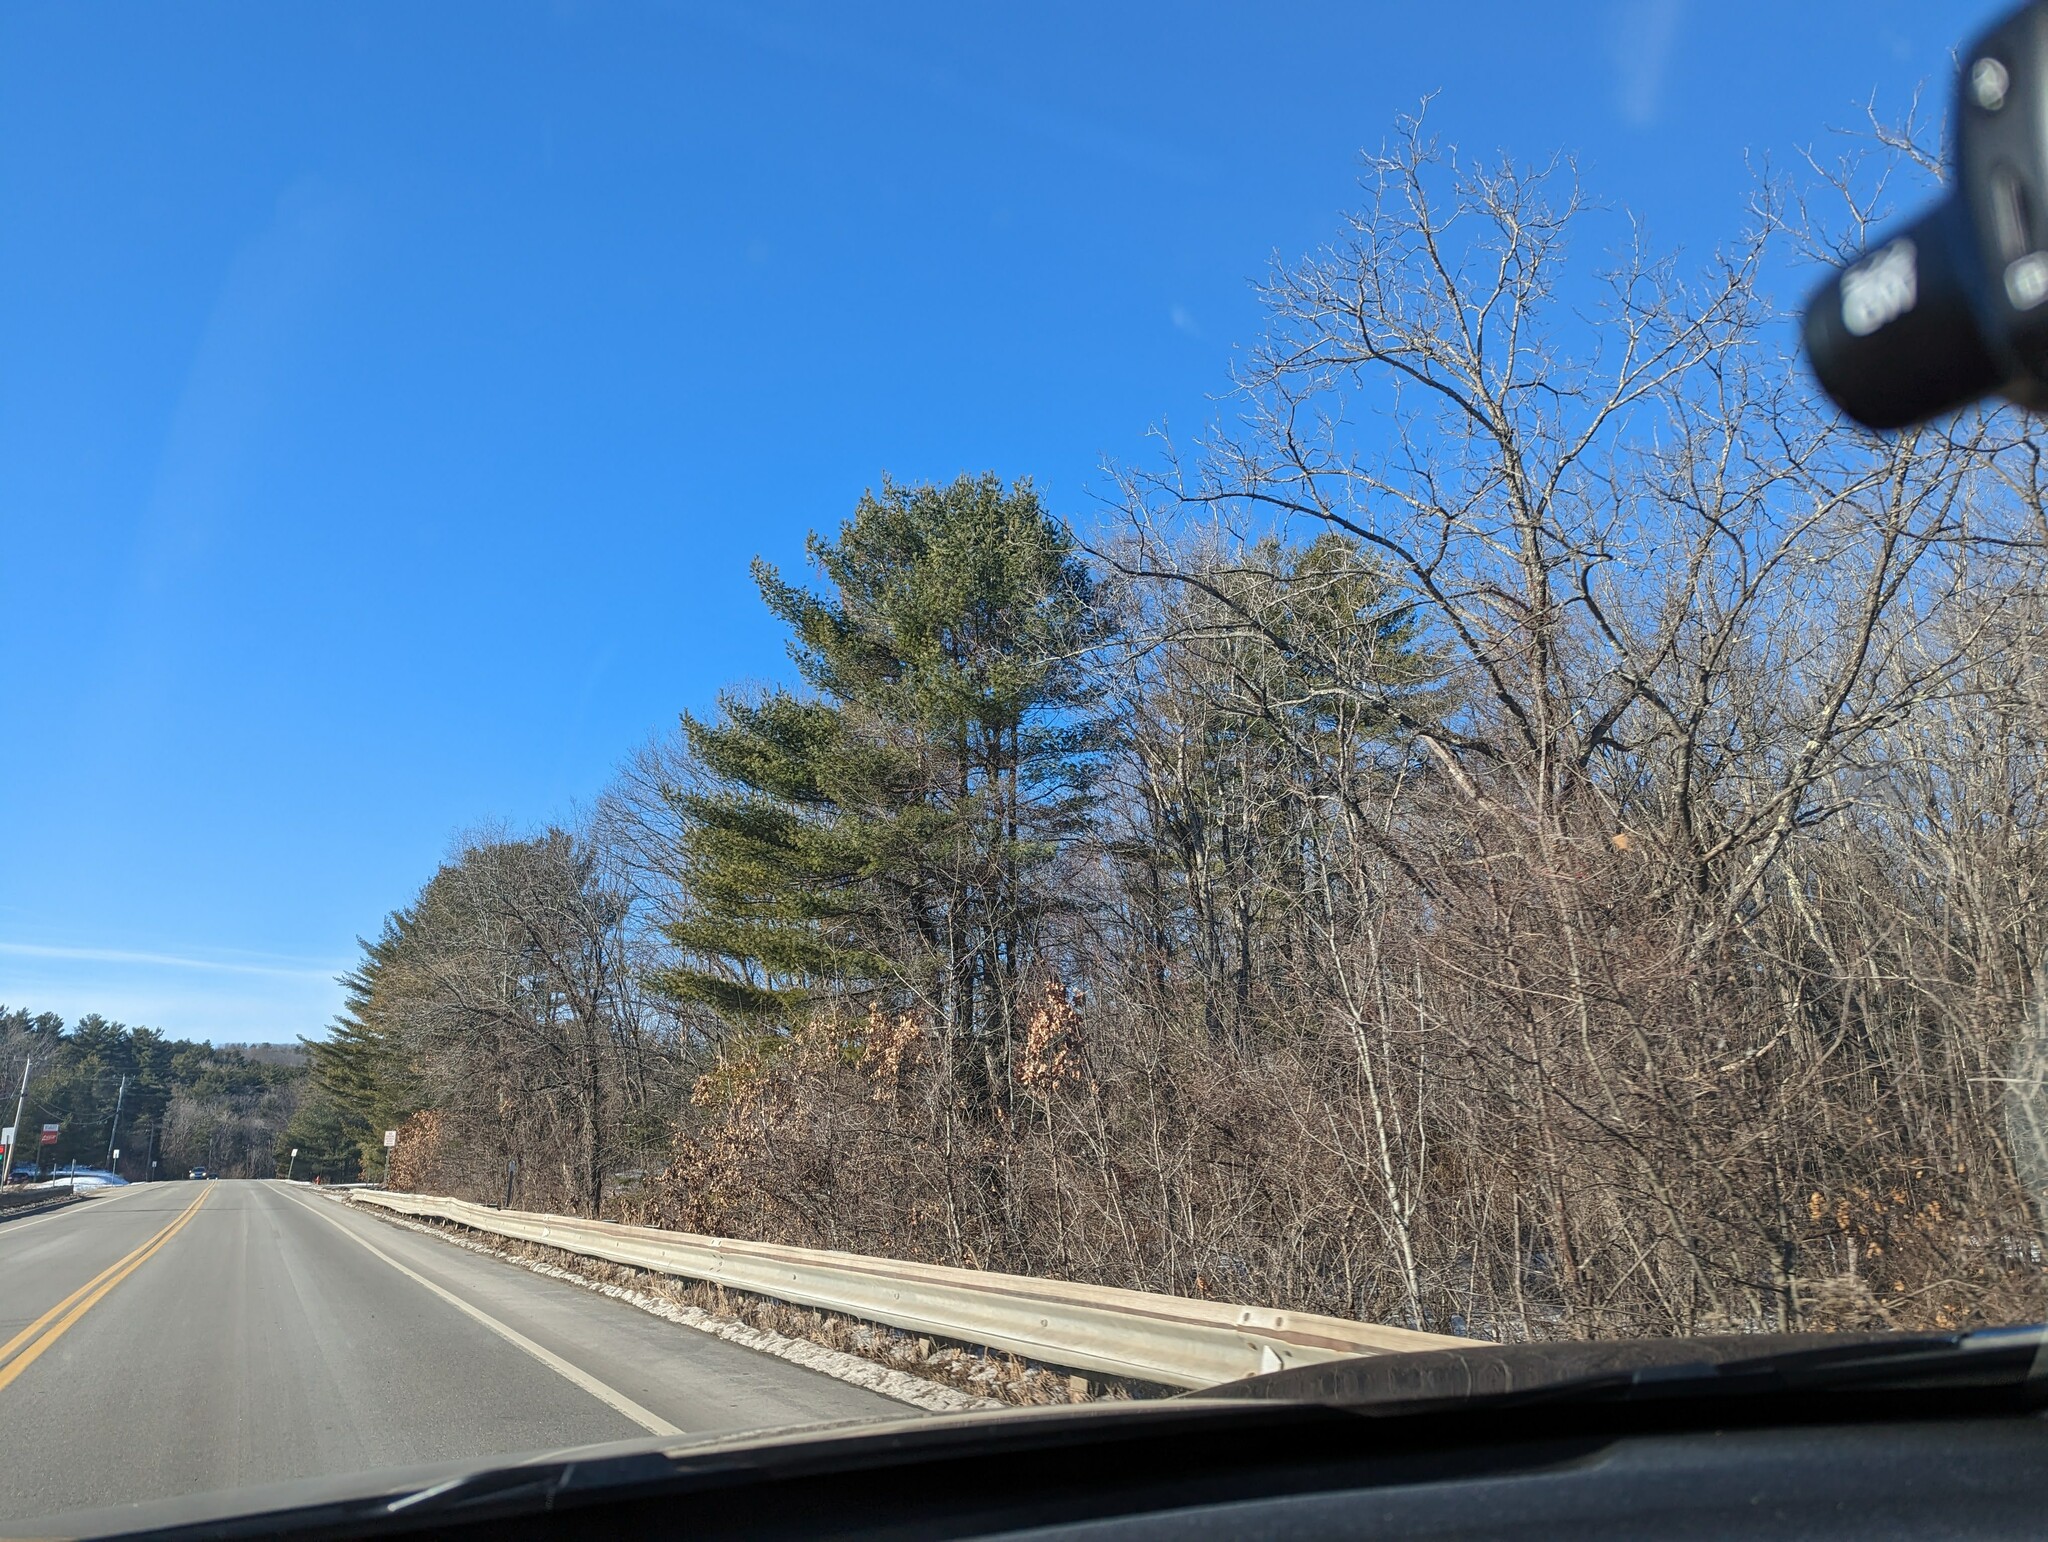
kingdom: Plantae
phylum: Tracheophyta
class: Pinopsida
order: Pinales
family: Pinaceae
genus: Pinus
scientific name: Pinus strobus
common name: Weymouth pine
